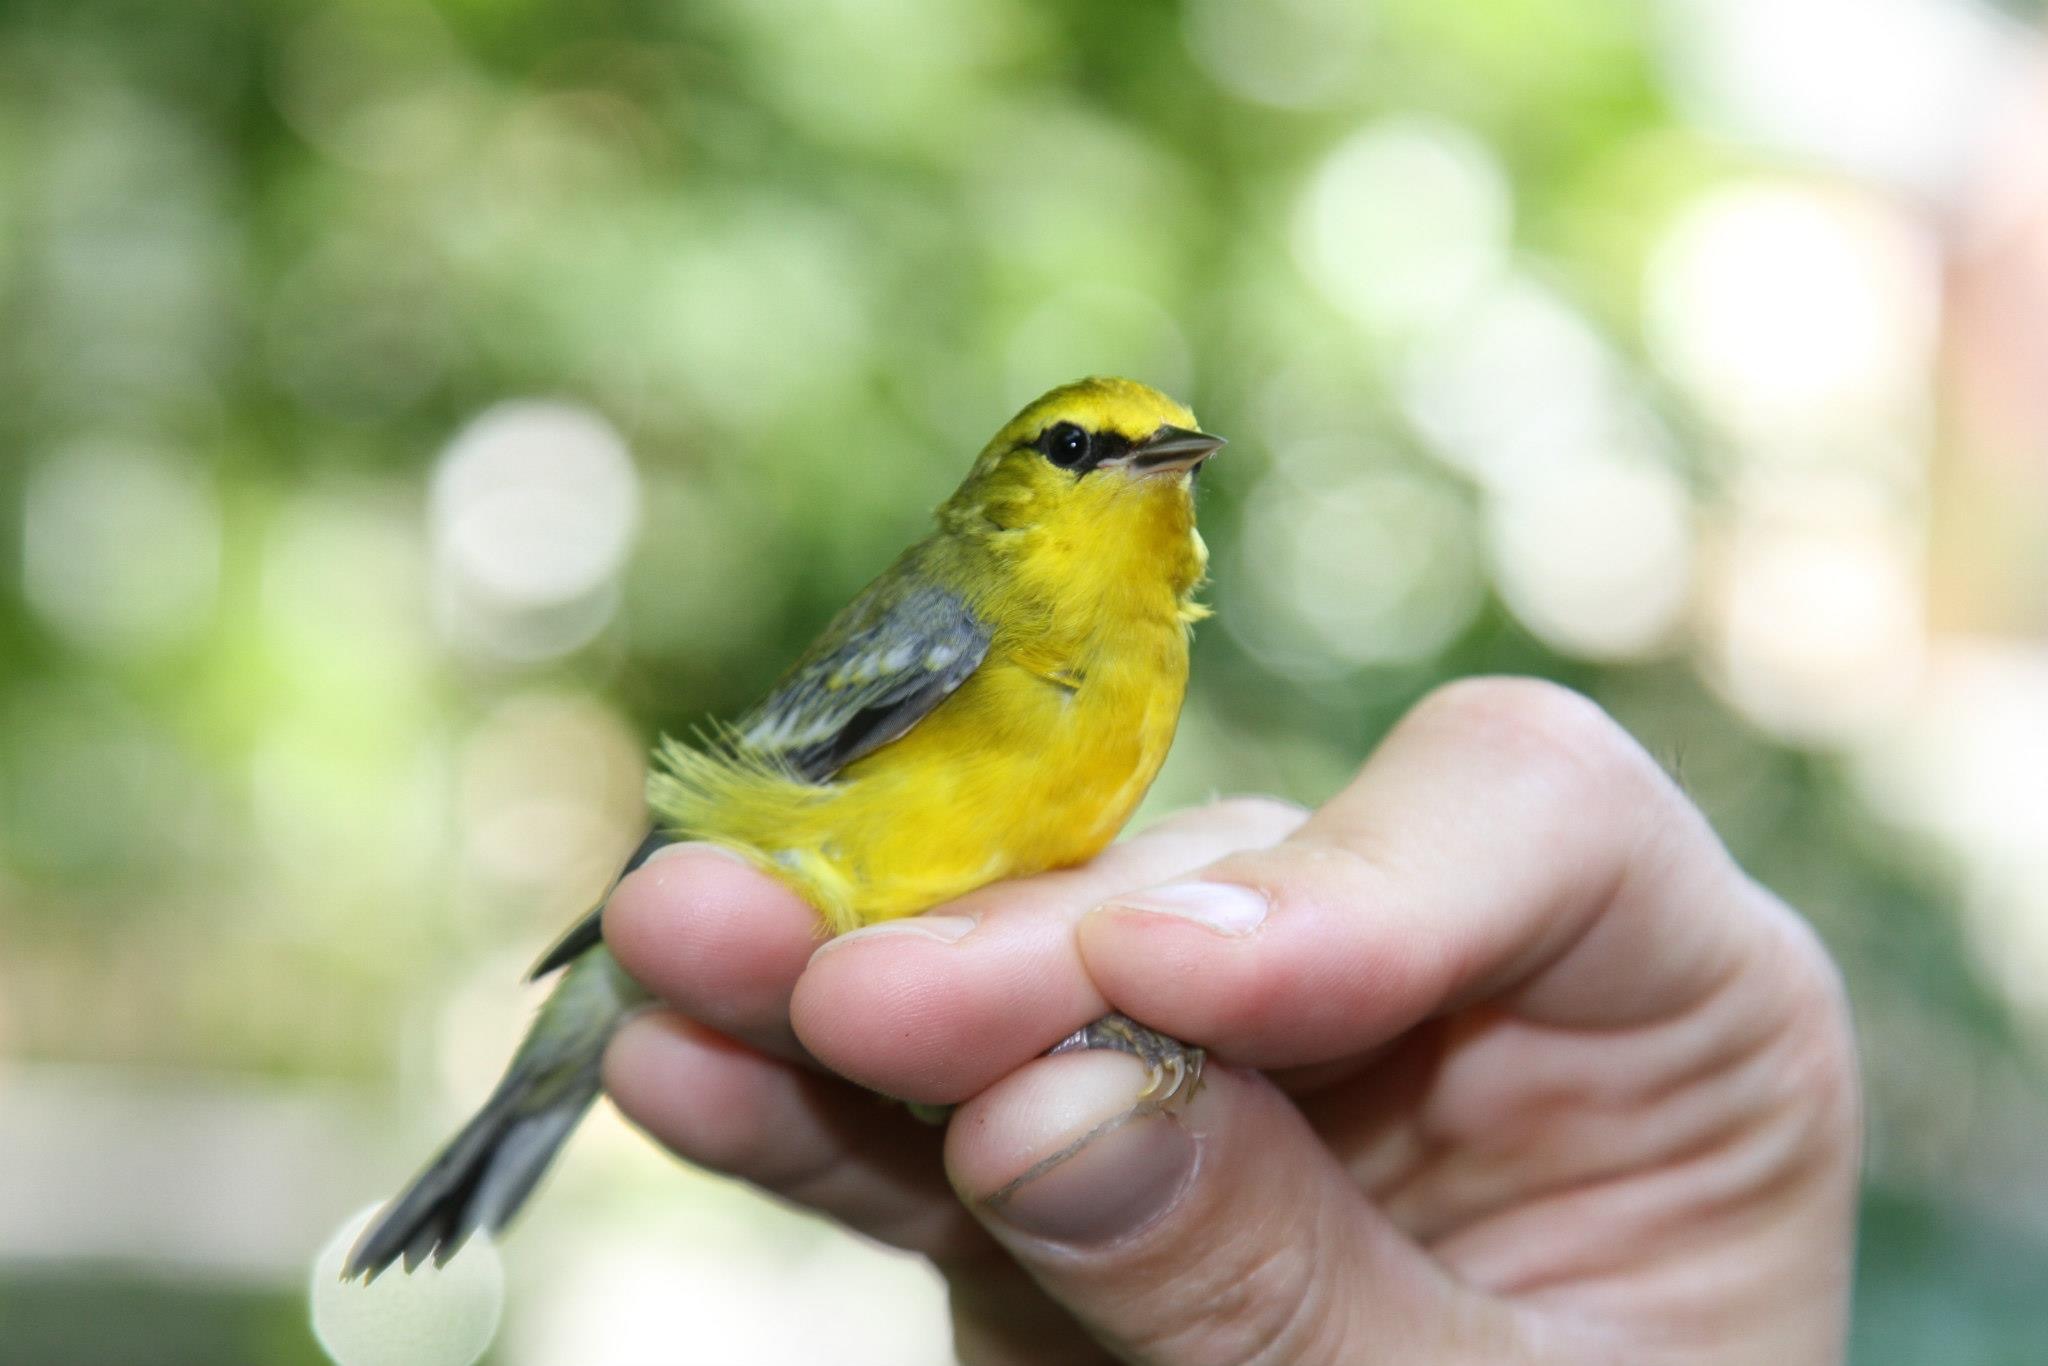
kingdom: Animalia
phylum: Chordata
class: Aves
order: Passeriformes
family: Parulidae
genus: Vermivora
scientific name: Vermivora cyanoptera
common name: Blue-winged warbler
